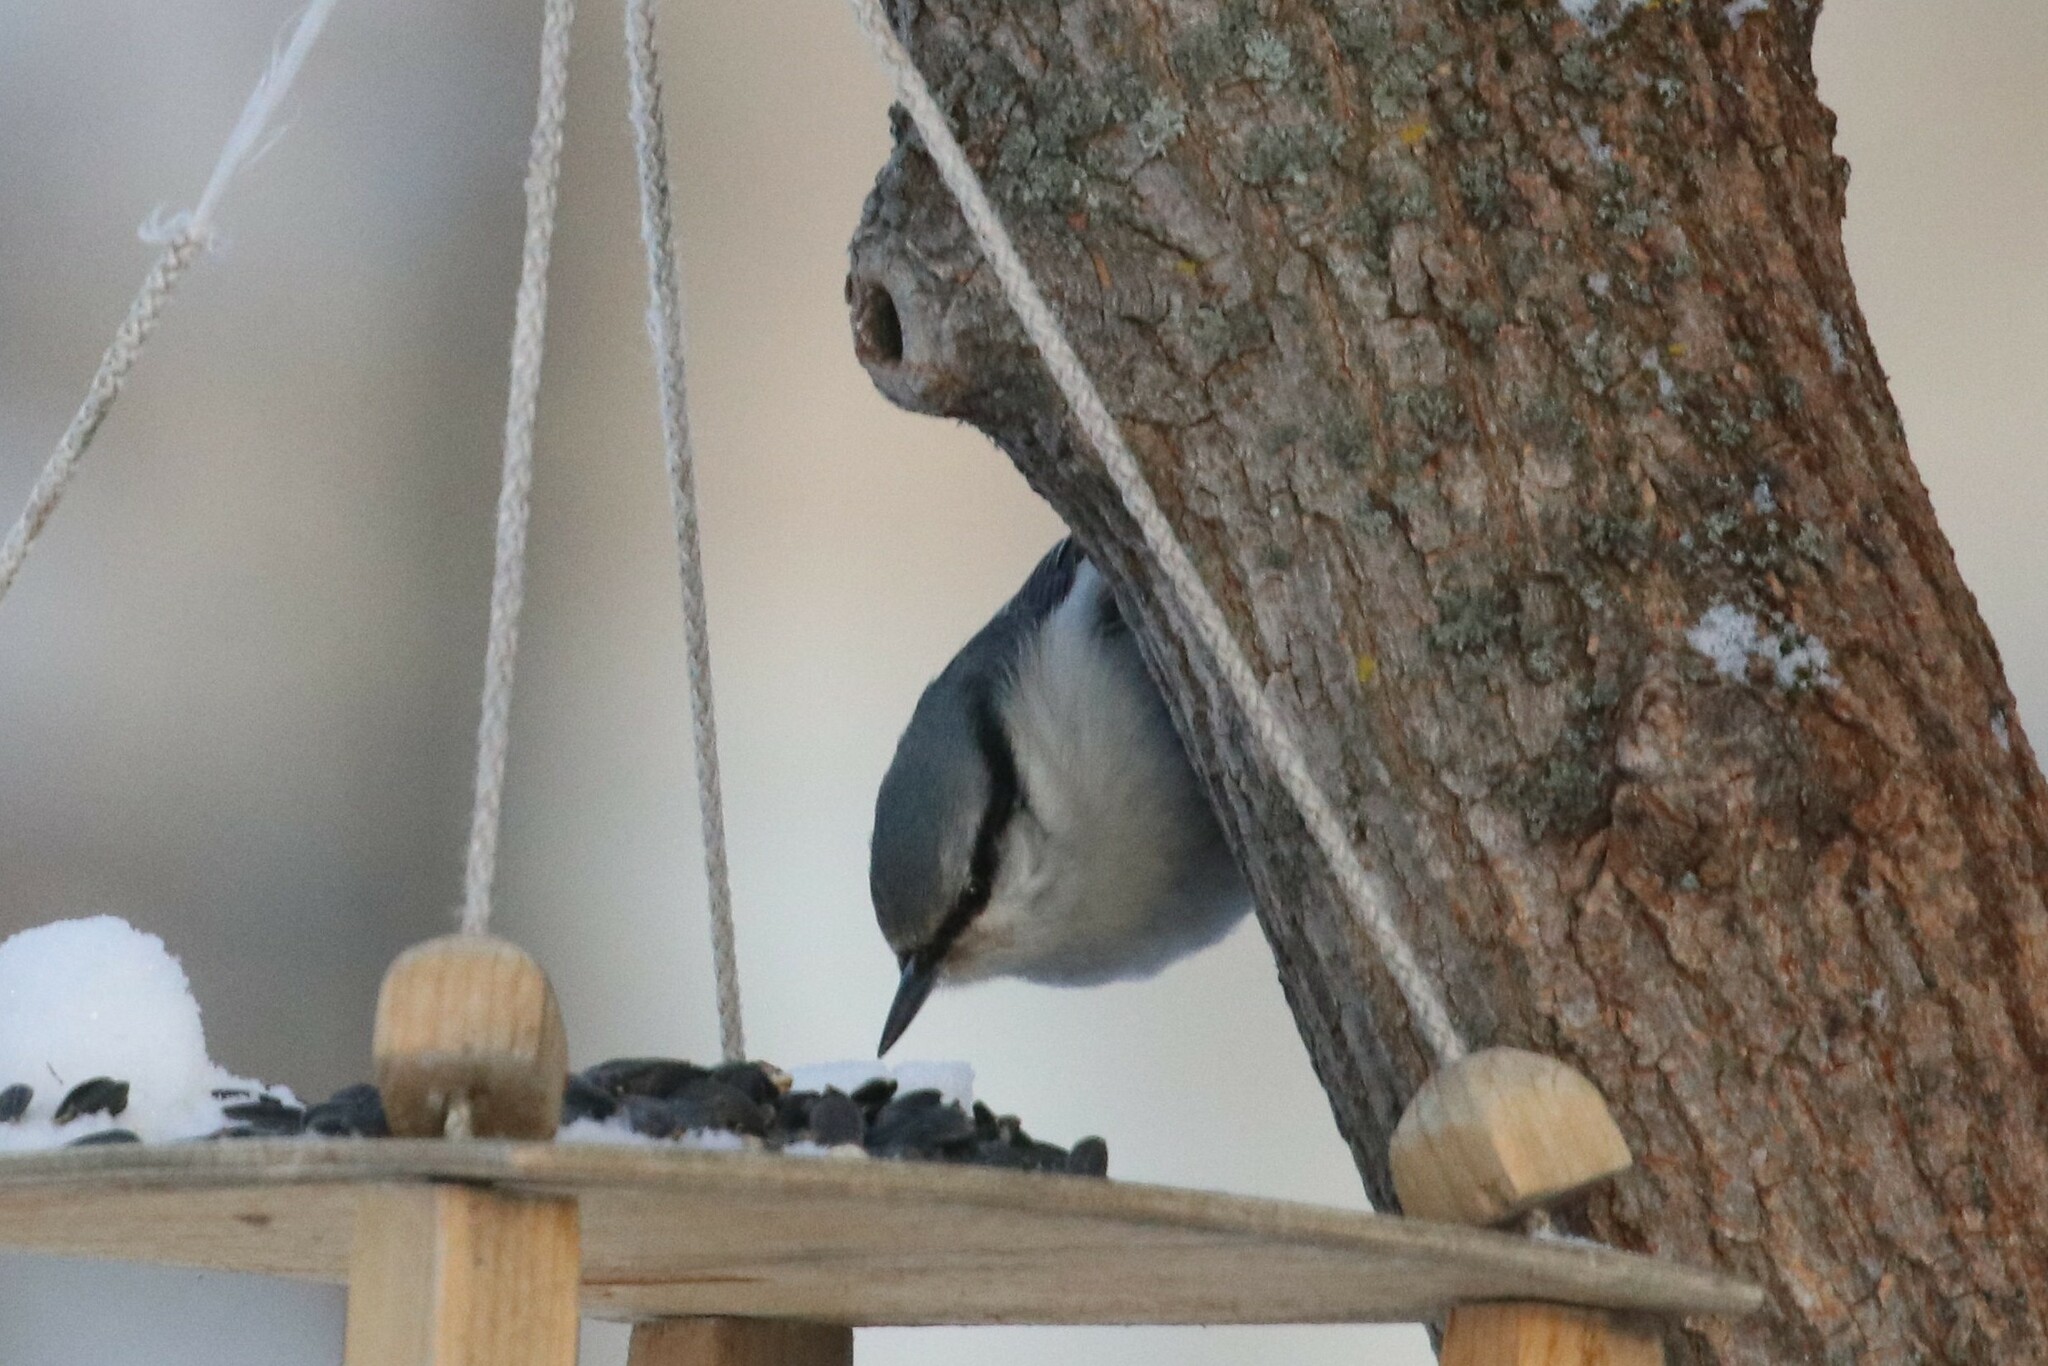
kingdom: Animalia
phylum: Chordata
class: Aves
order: Passeriformes
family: Sittidae
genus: Sitta
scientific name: Sitta europaea
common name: Eurasian nuthatch
